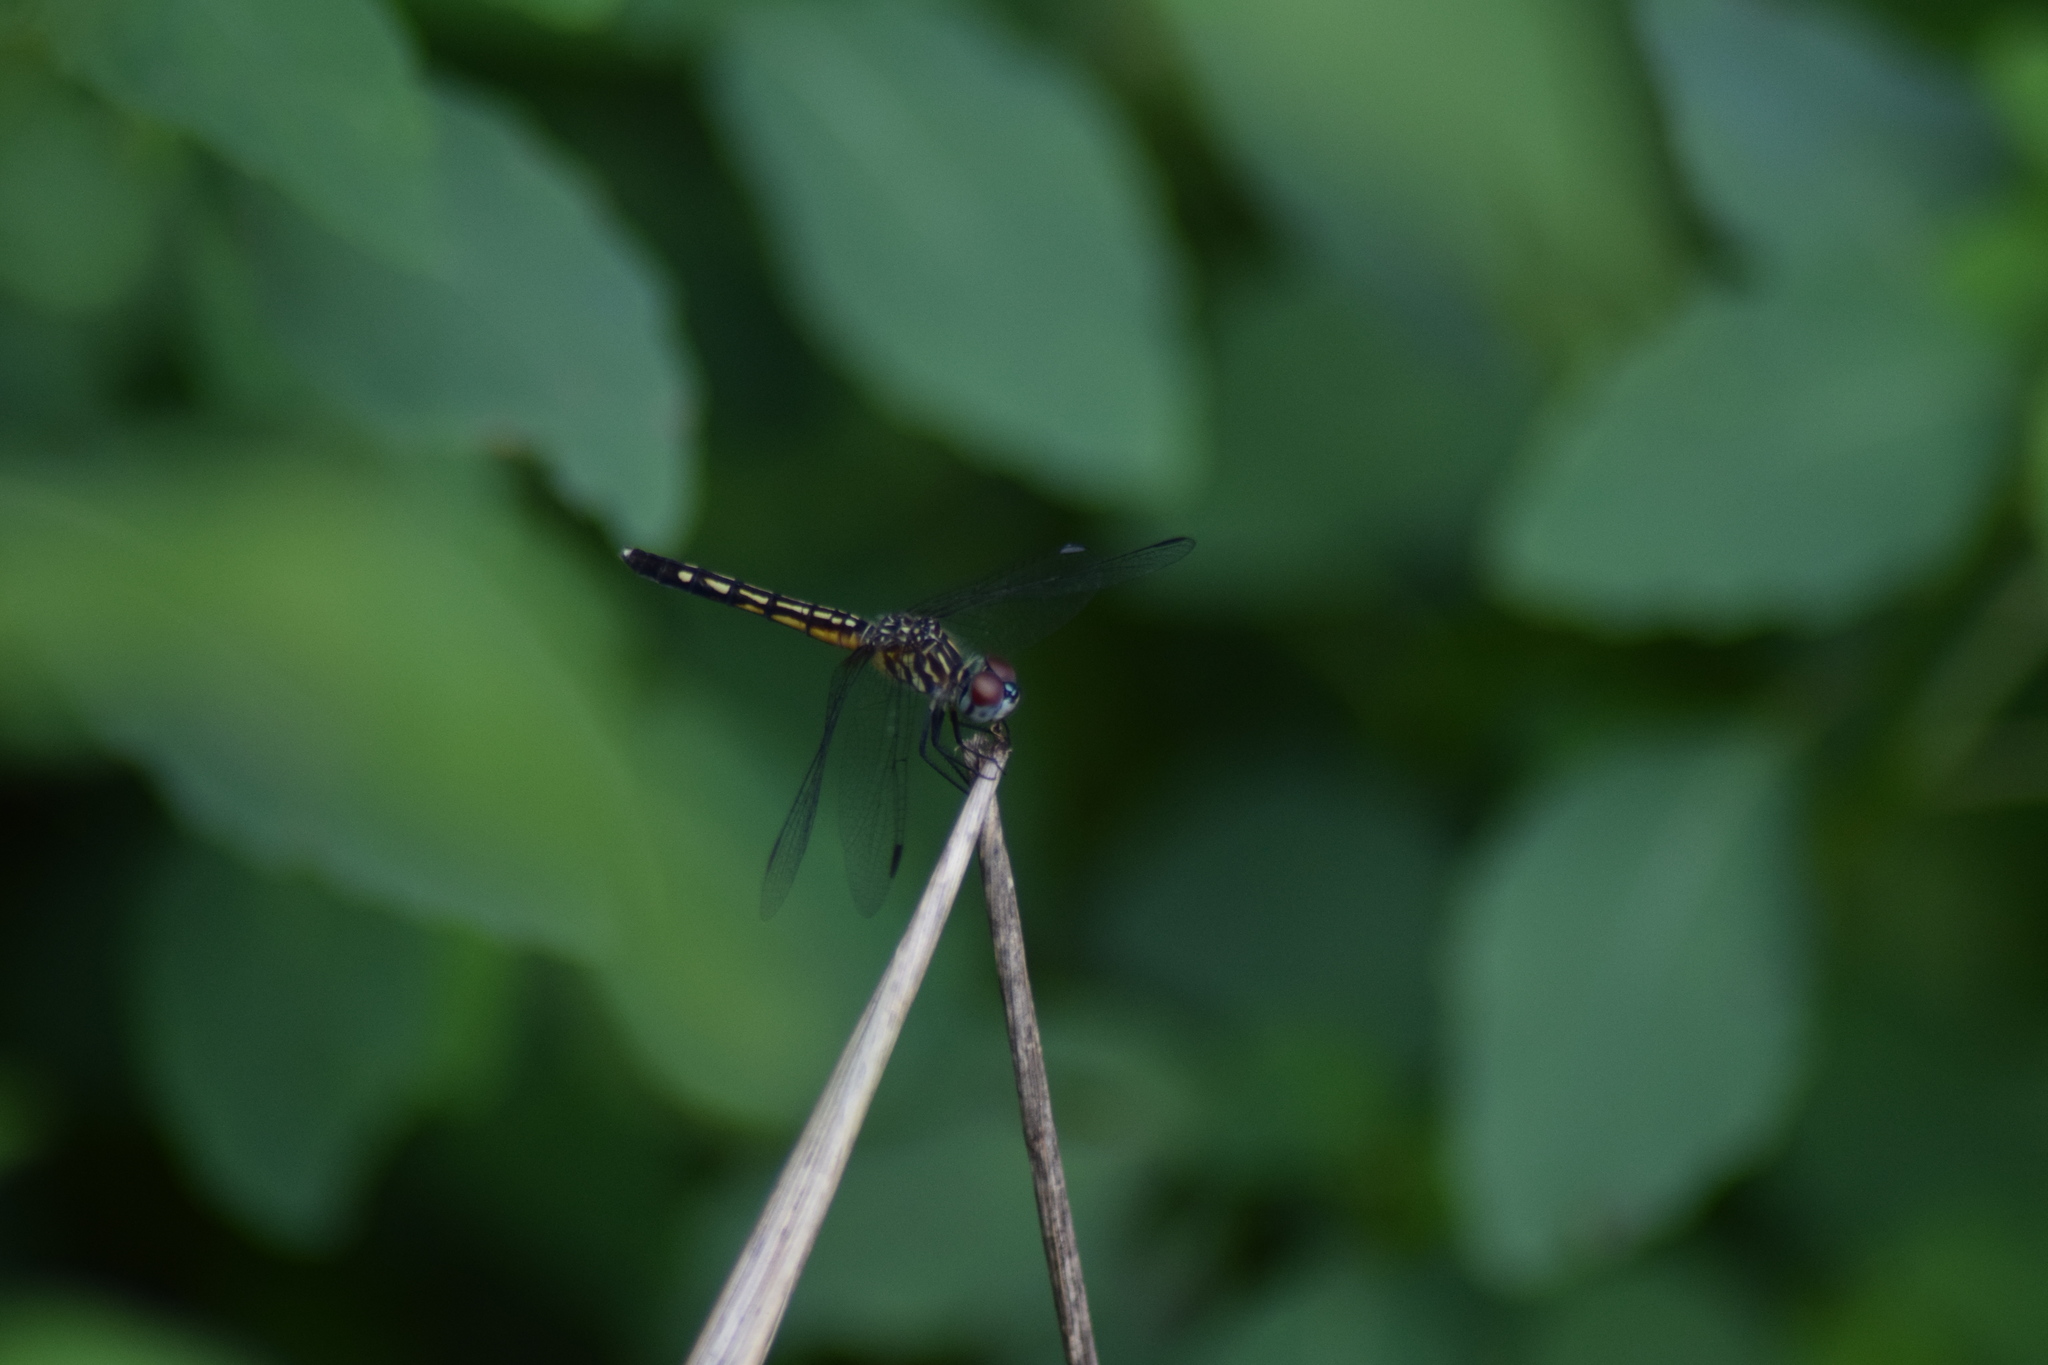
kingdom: Animalia
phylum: Arthropoda
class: Insecta
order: Odonata
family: Libellulidae
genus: Pachydiplax
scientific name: Pachydiplax longipennis
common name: Blue dasher
